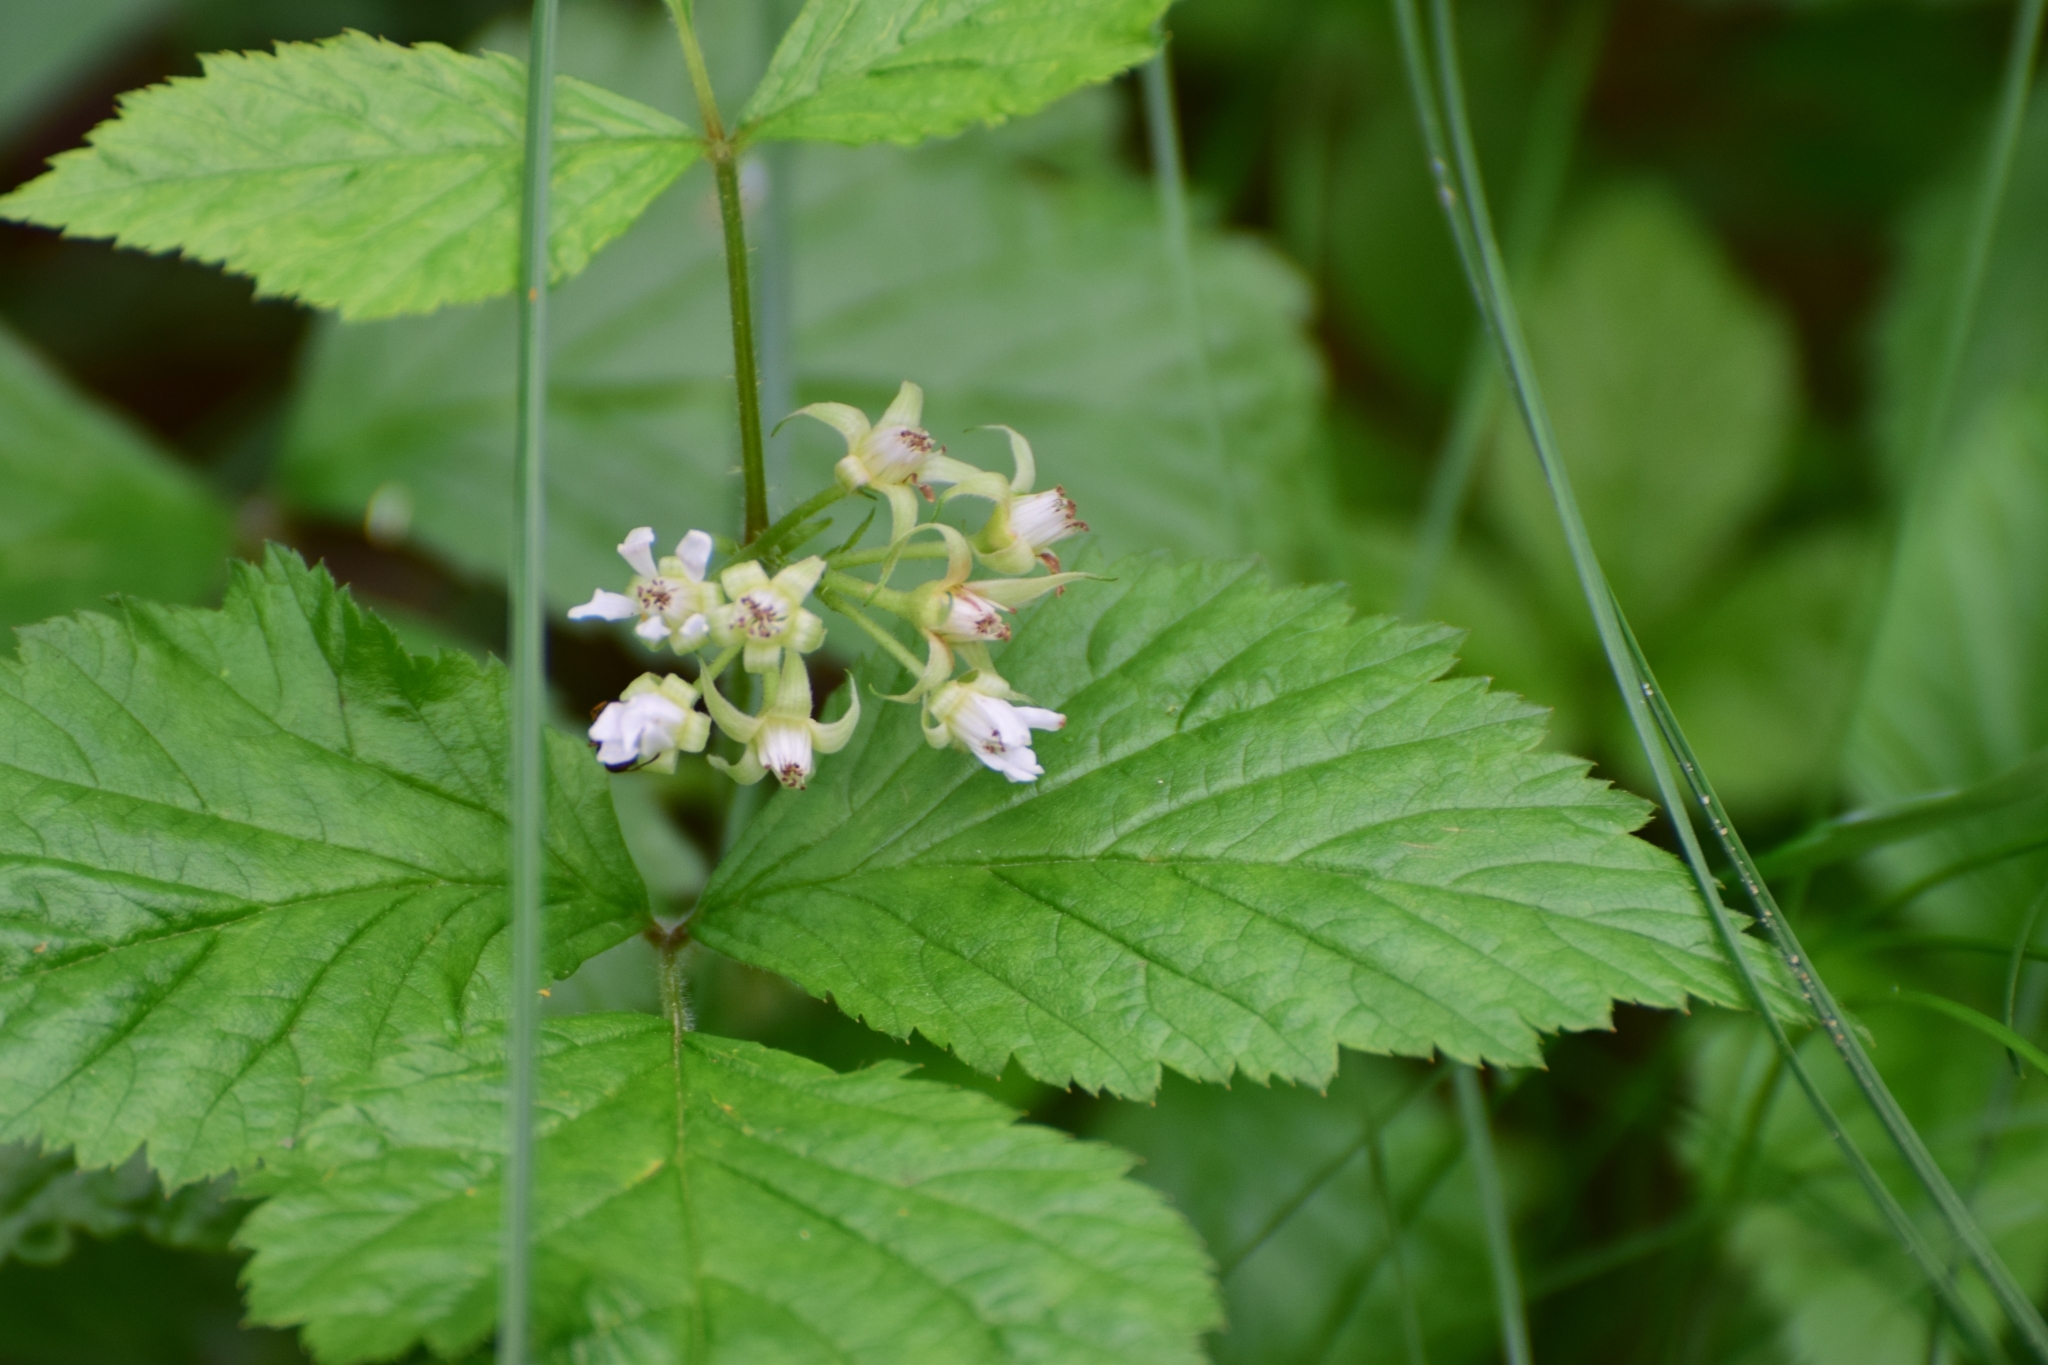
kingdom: Plantae
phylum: Tracheophyta
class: Magnoliopsida
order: Rosales
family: Rosaceae
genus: Rubus
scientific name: Rubus saxatilis
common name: Stone bramble
